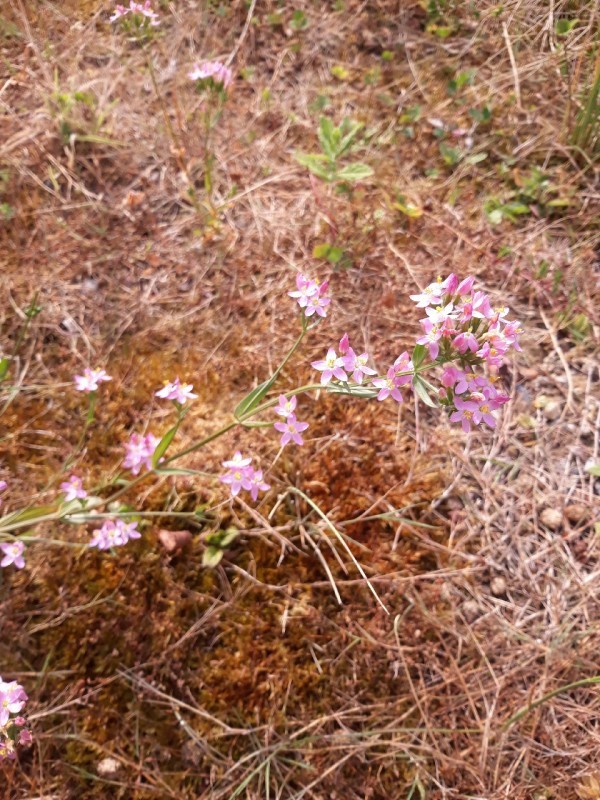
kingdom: Plantae
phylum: Tracheophyta
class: Magnoliopsida
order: Gentianales
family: Gentianaceae
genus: Centaurium
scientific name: Centaurium erythraea
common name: Common centaury
